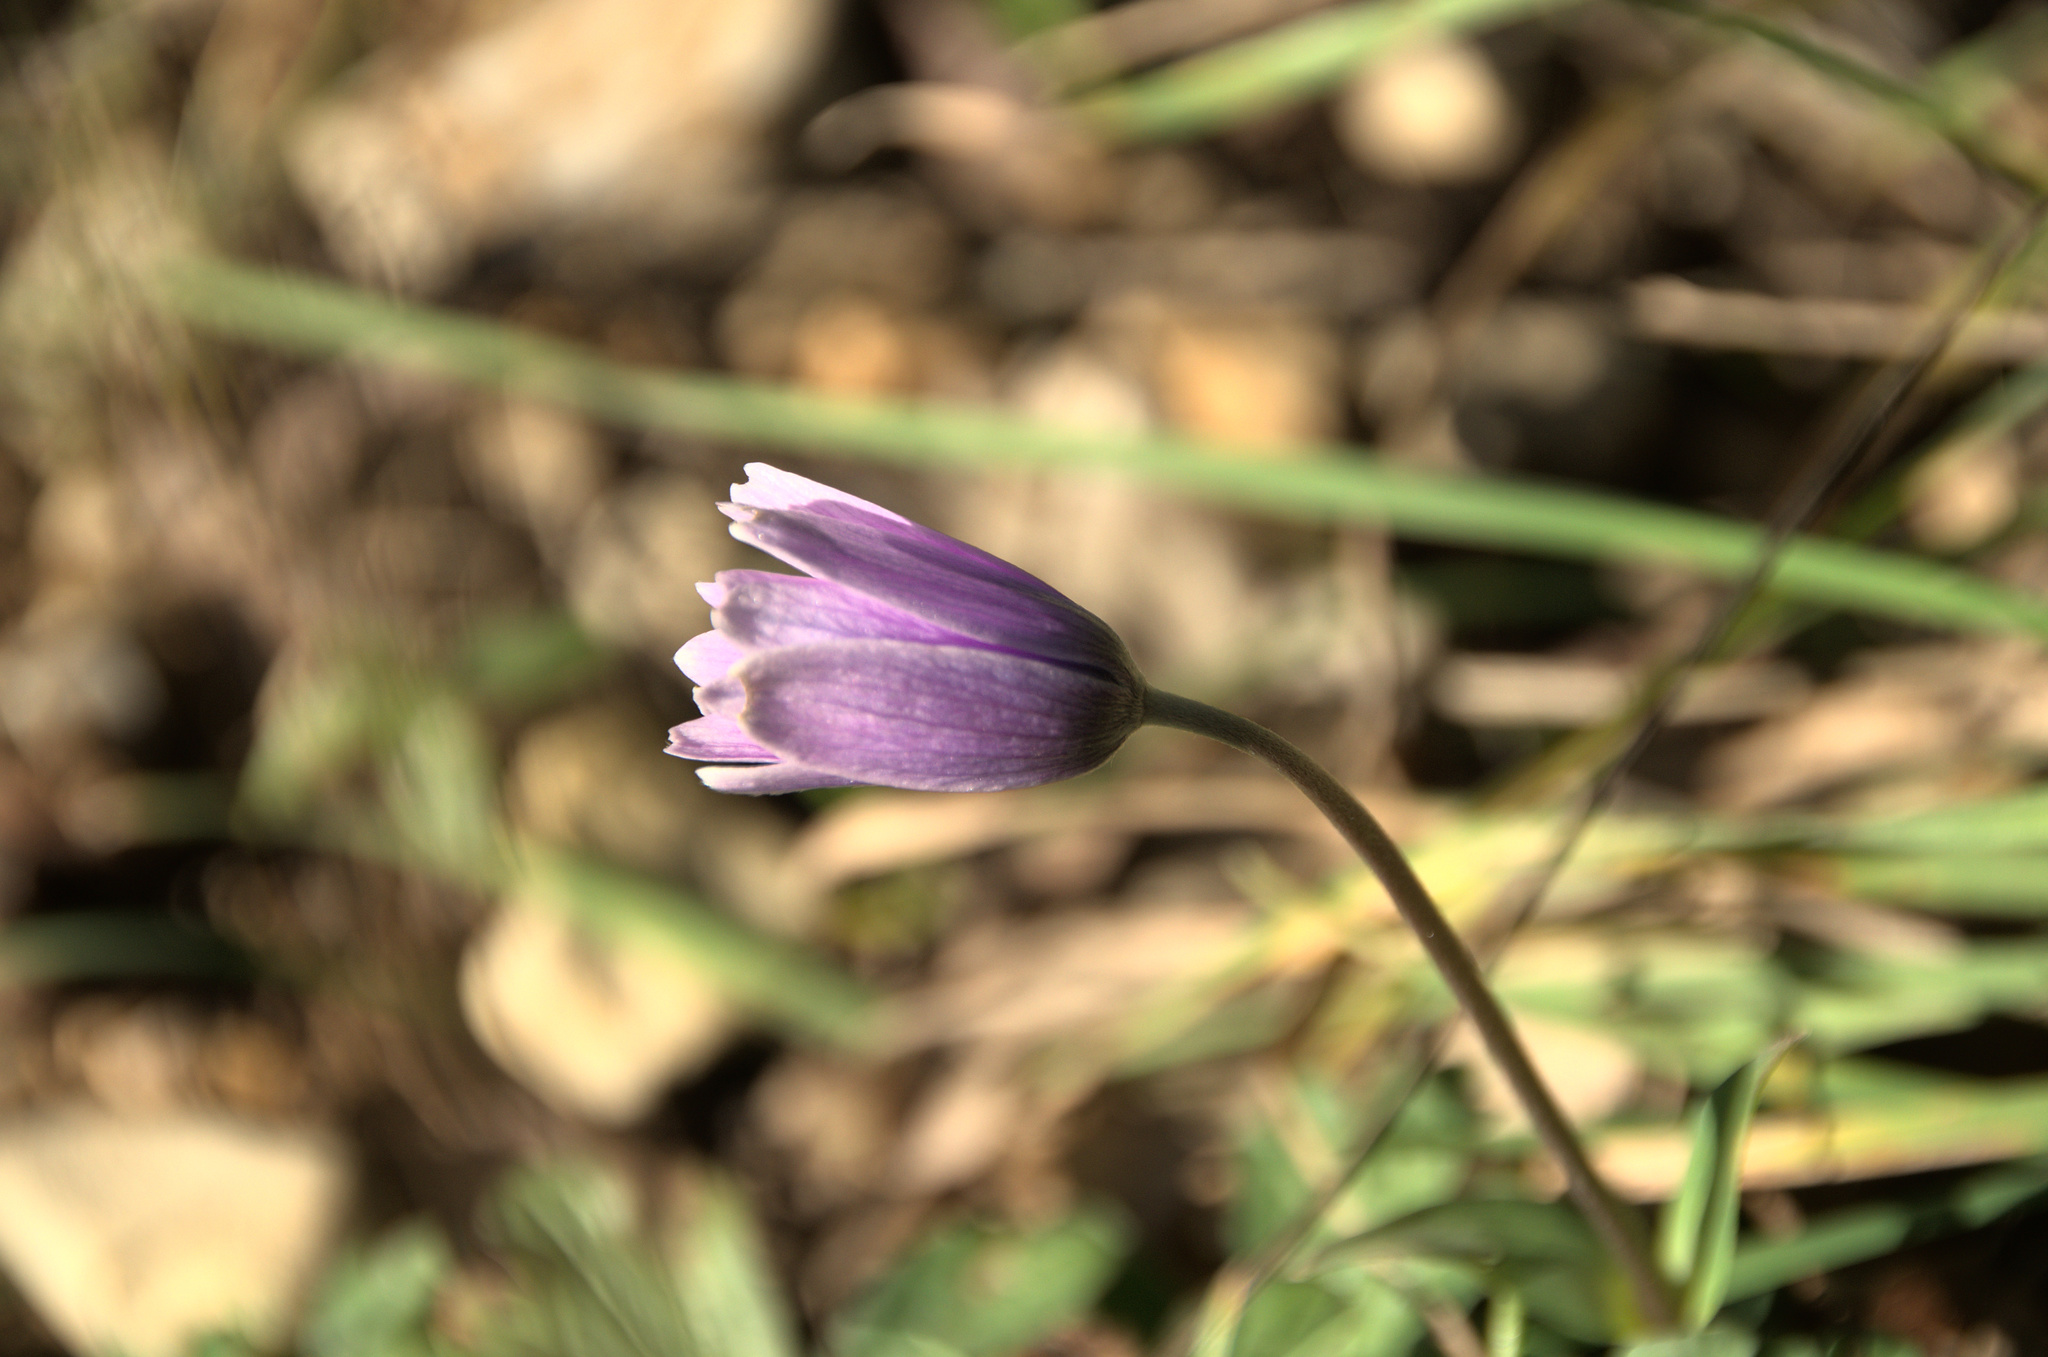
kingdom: Plantae
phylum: Tracheophyta
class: Magnoliopsida
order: Ranunculales
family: Ranunculaceae
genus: Anemone
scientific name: Anemone hortensis
